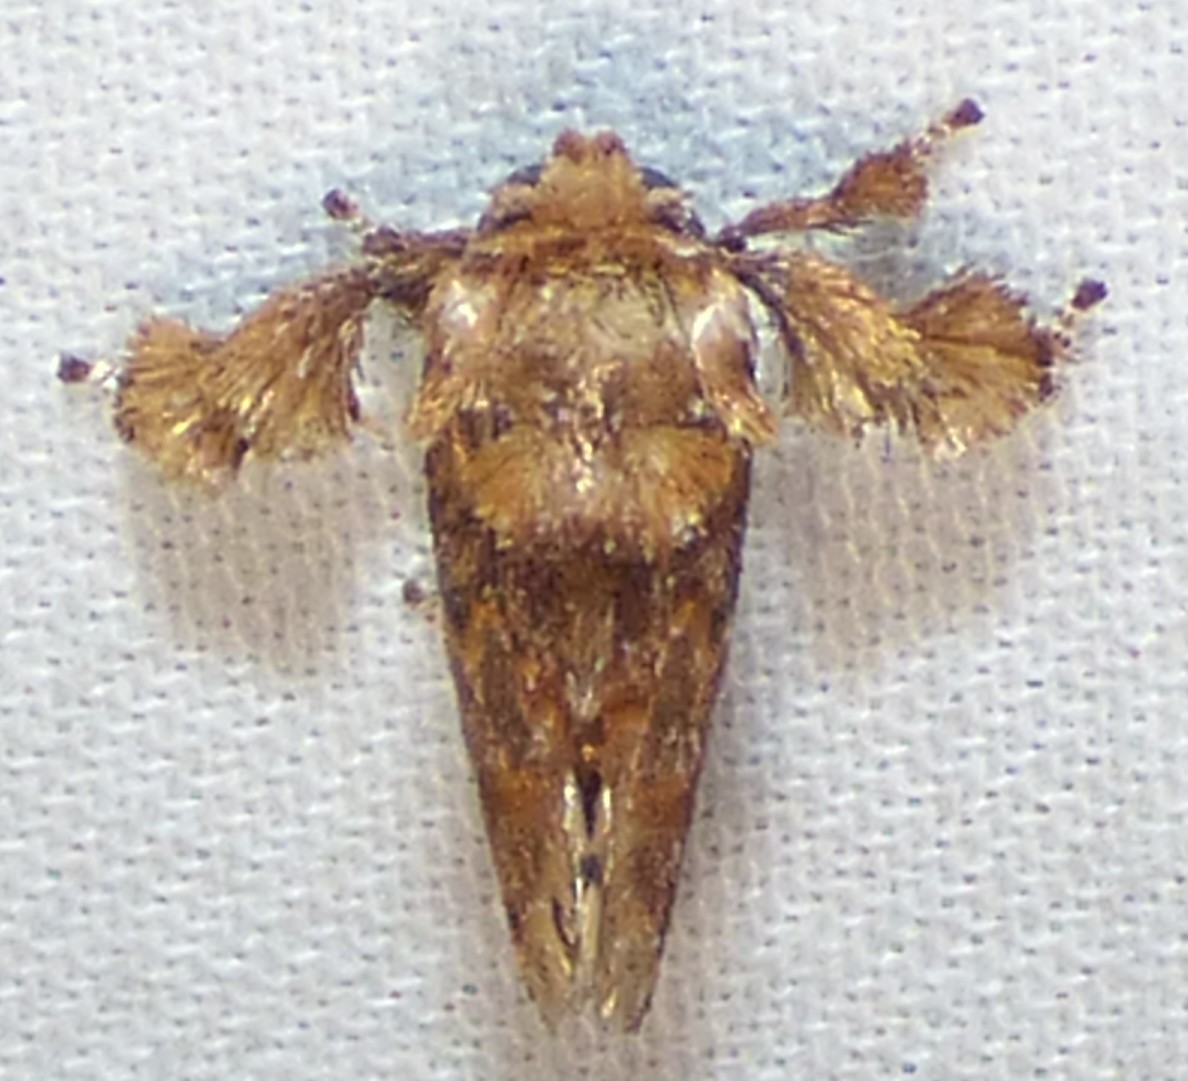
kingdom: Animalia
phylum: Arthropoda
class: Insecta
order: Lepidoptera
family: Limacodidae
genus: Isochaetes
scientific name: Isochaetes beutenmuelleri
